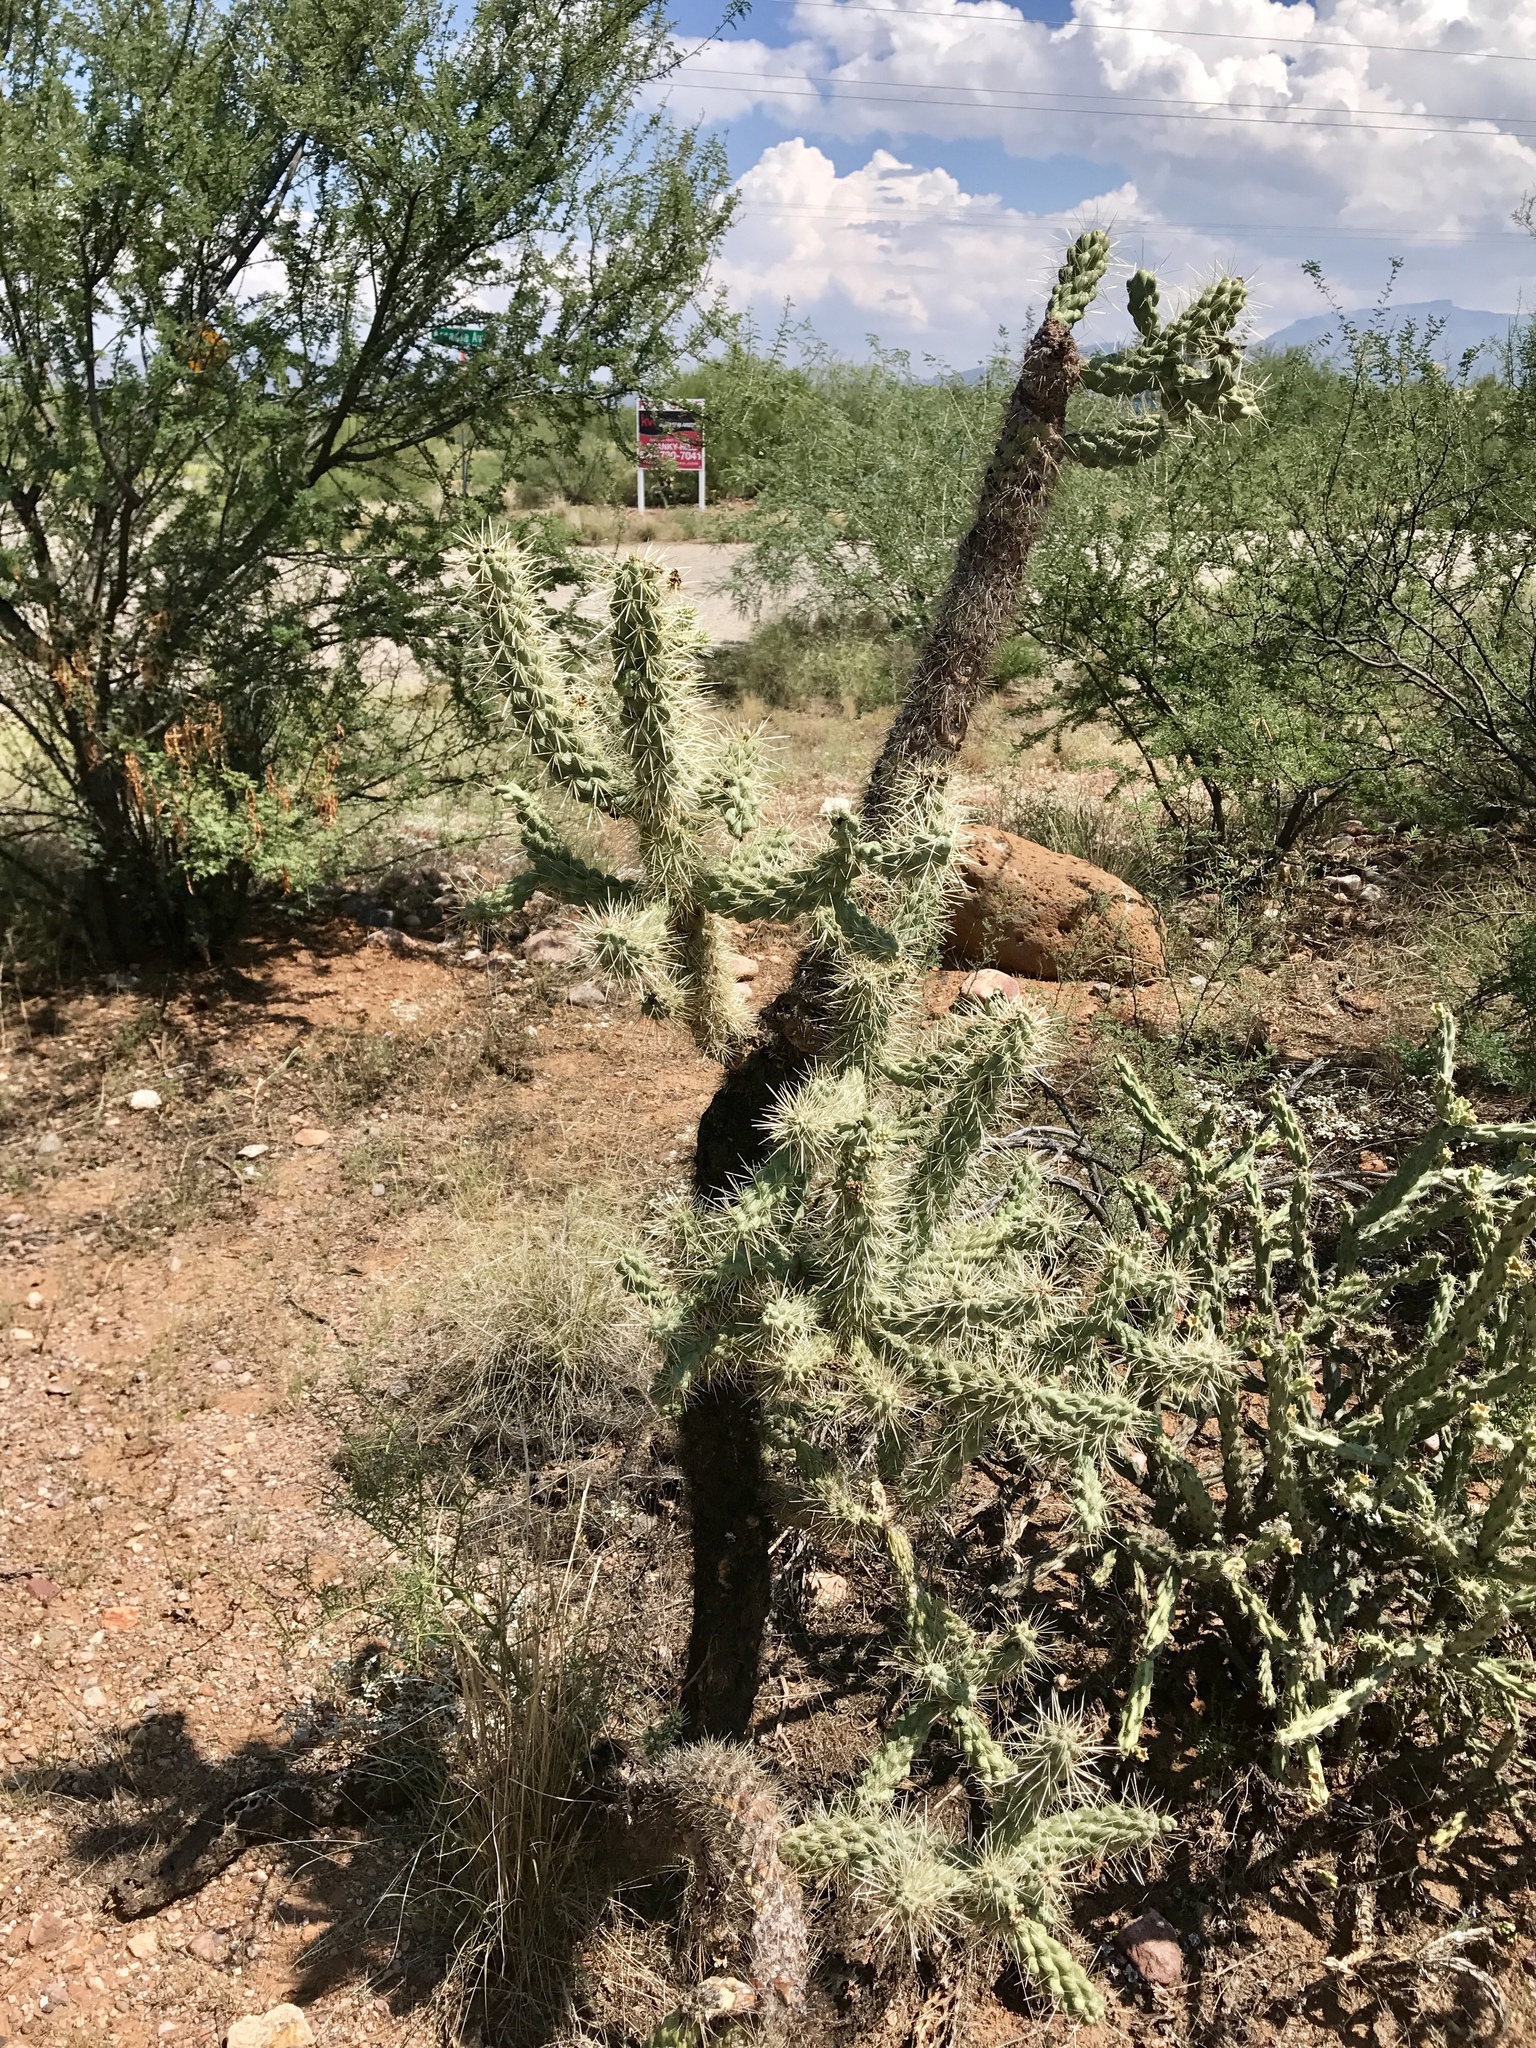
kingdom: Plantae
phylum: Tracheophyta
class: Magnoliopsida
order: Caryophyllales
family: Cactaceae
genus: Cylindropuntia
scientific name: Cylindropuntia fulgida
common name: Jumping cholla
